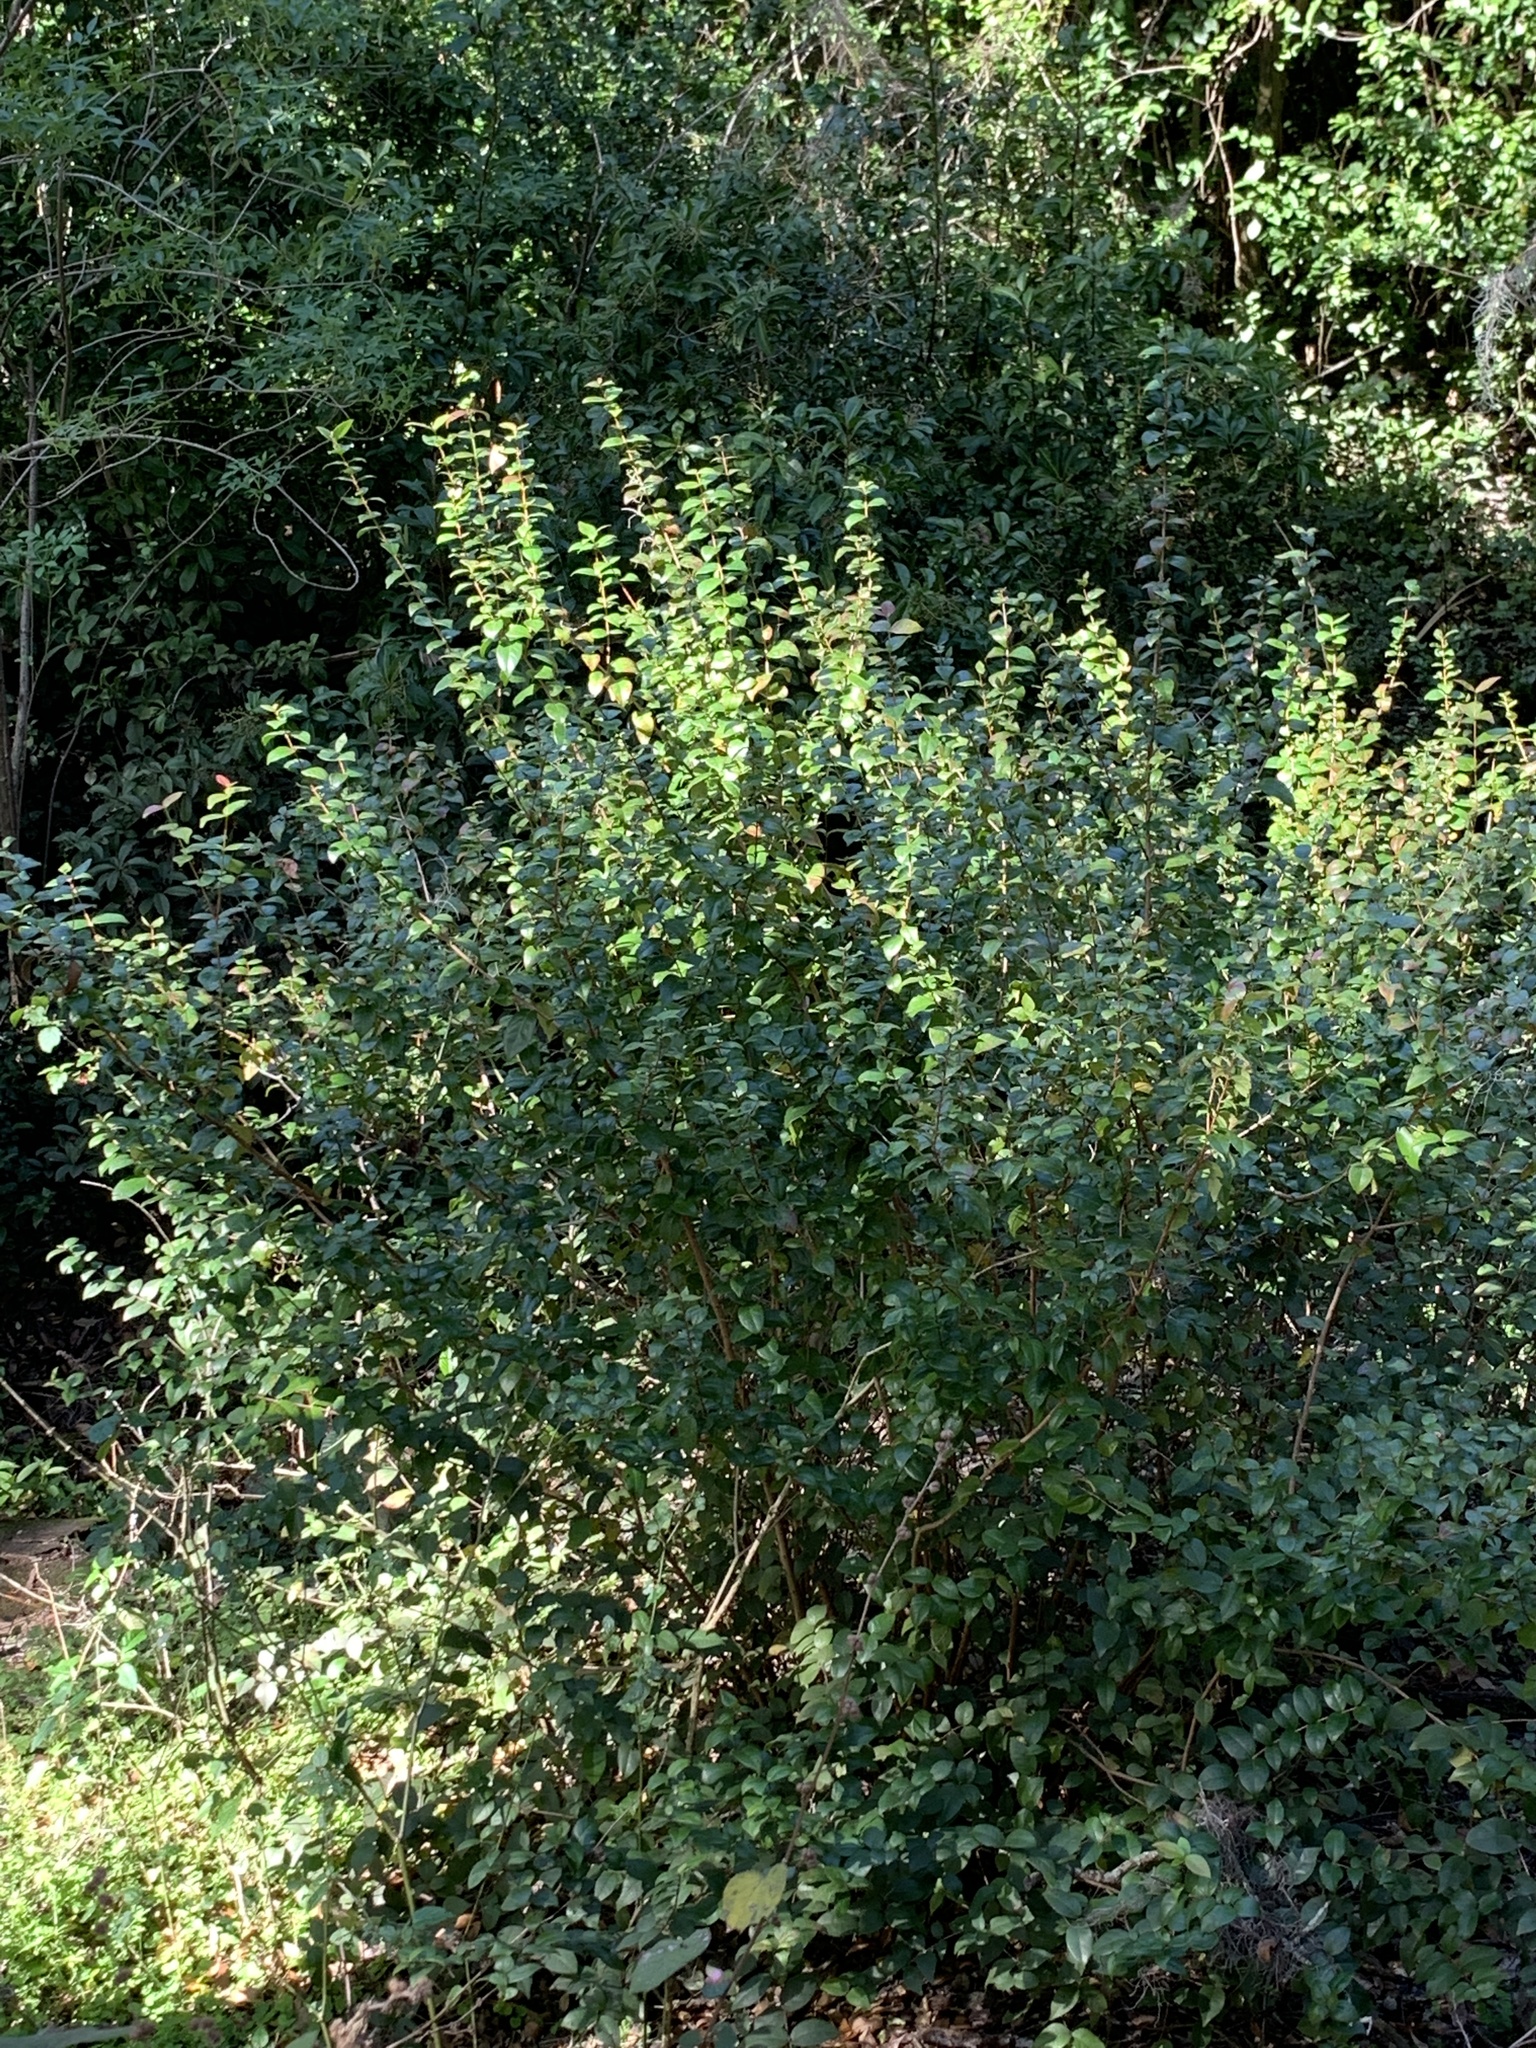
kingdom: Plantae
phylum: Tracheophyta
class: Magnoliopsida
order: Myrtales
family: Myrtaceae
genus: Eugenia
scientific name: Eugenia uniflora
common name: Surinam cherry
